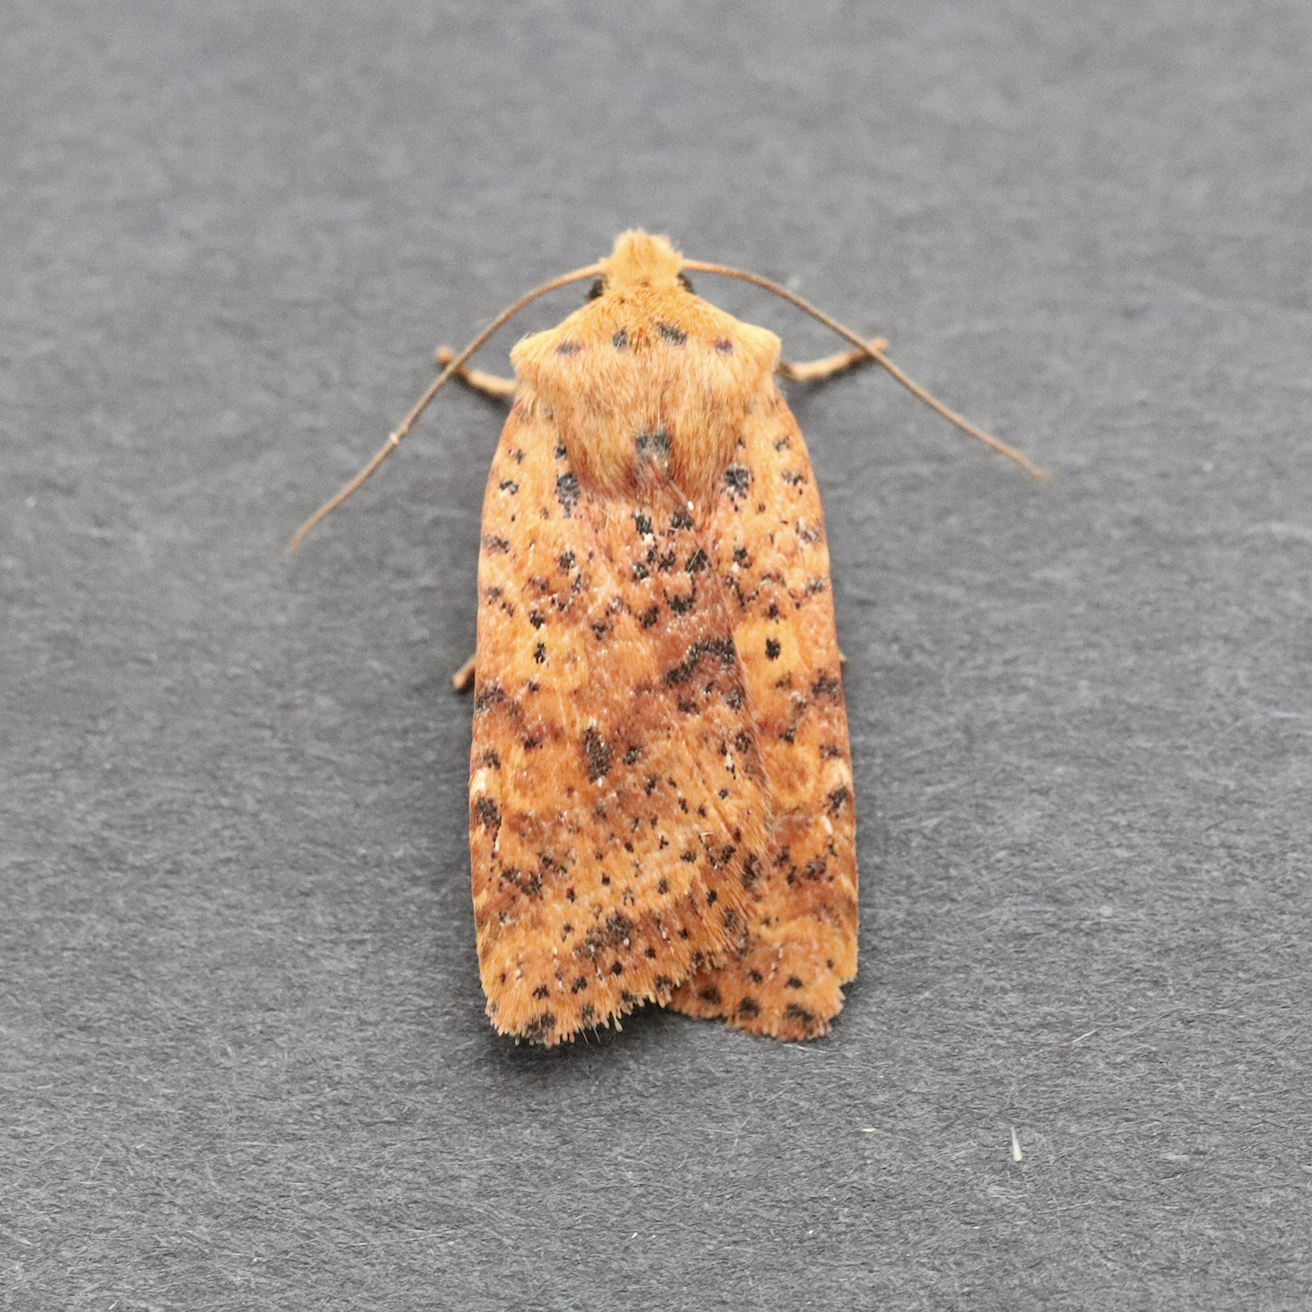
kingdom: Animalia
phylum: Arthropoda
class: Insecta
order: Lepidoptera
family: Noctuidae
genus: Conistra
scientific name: Conistra rubiginea
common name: Dotted chestnut
